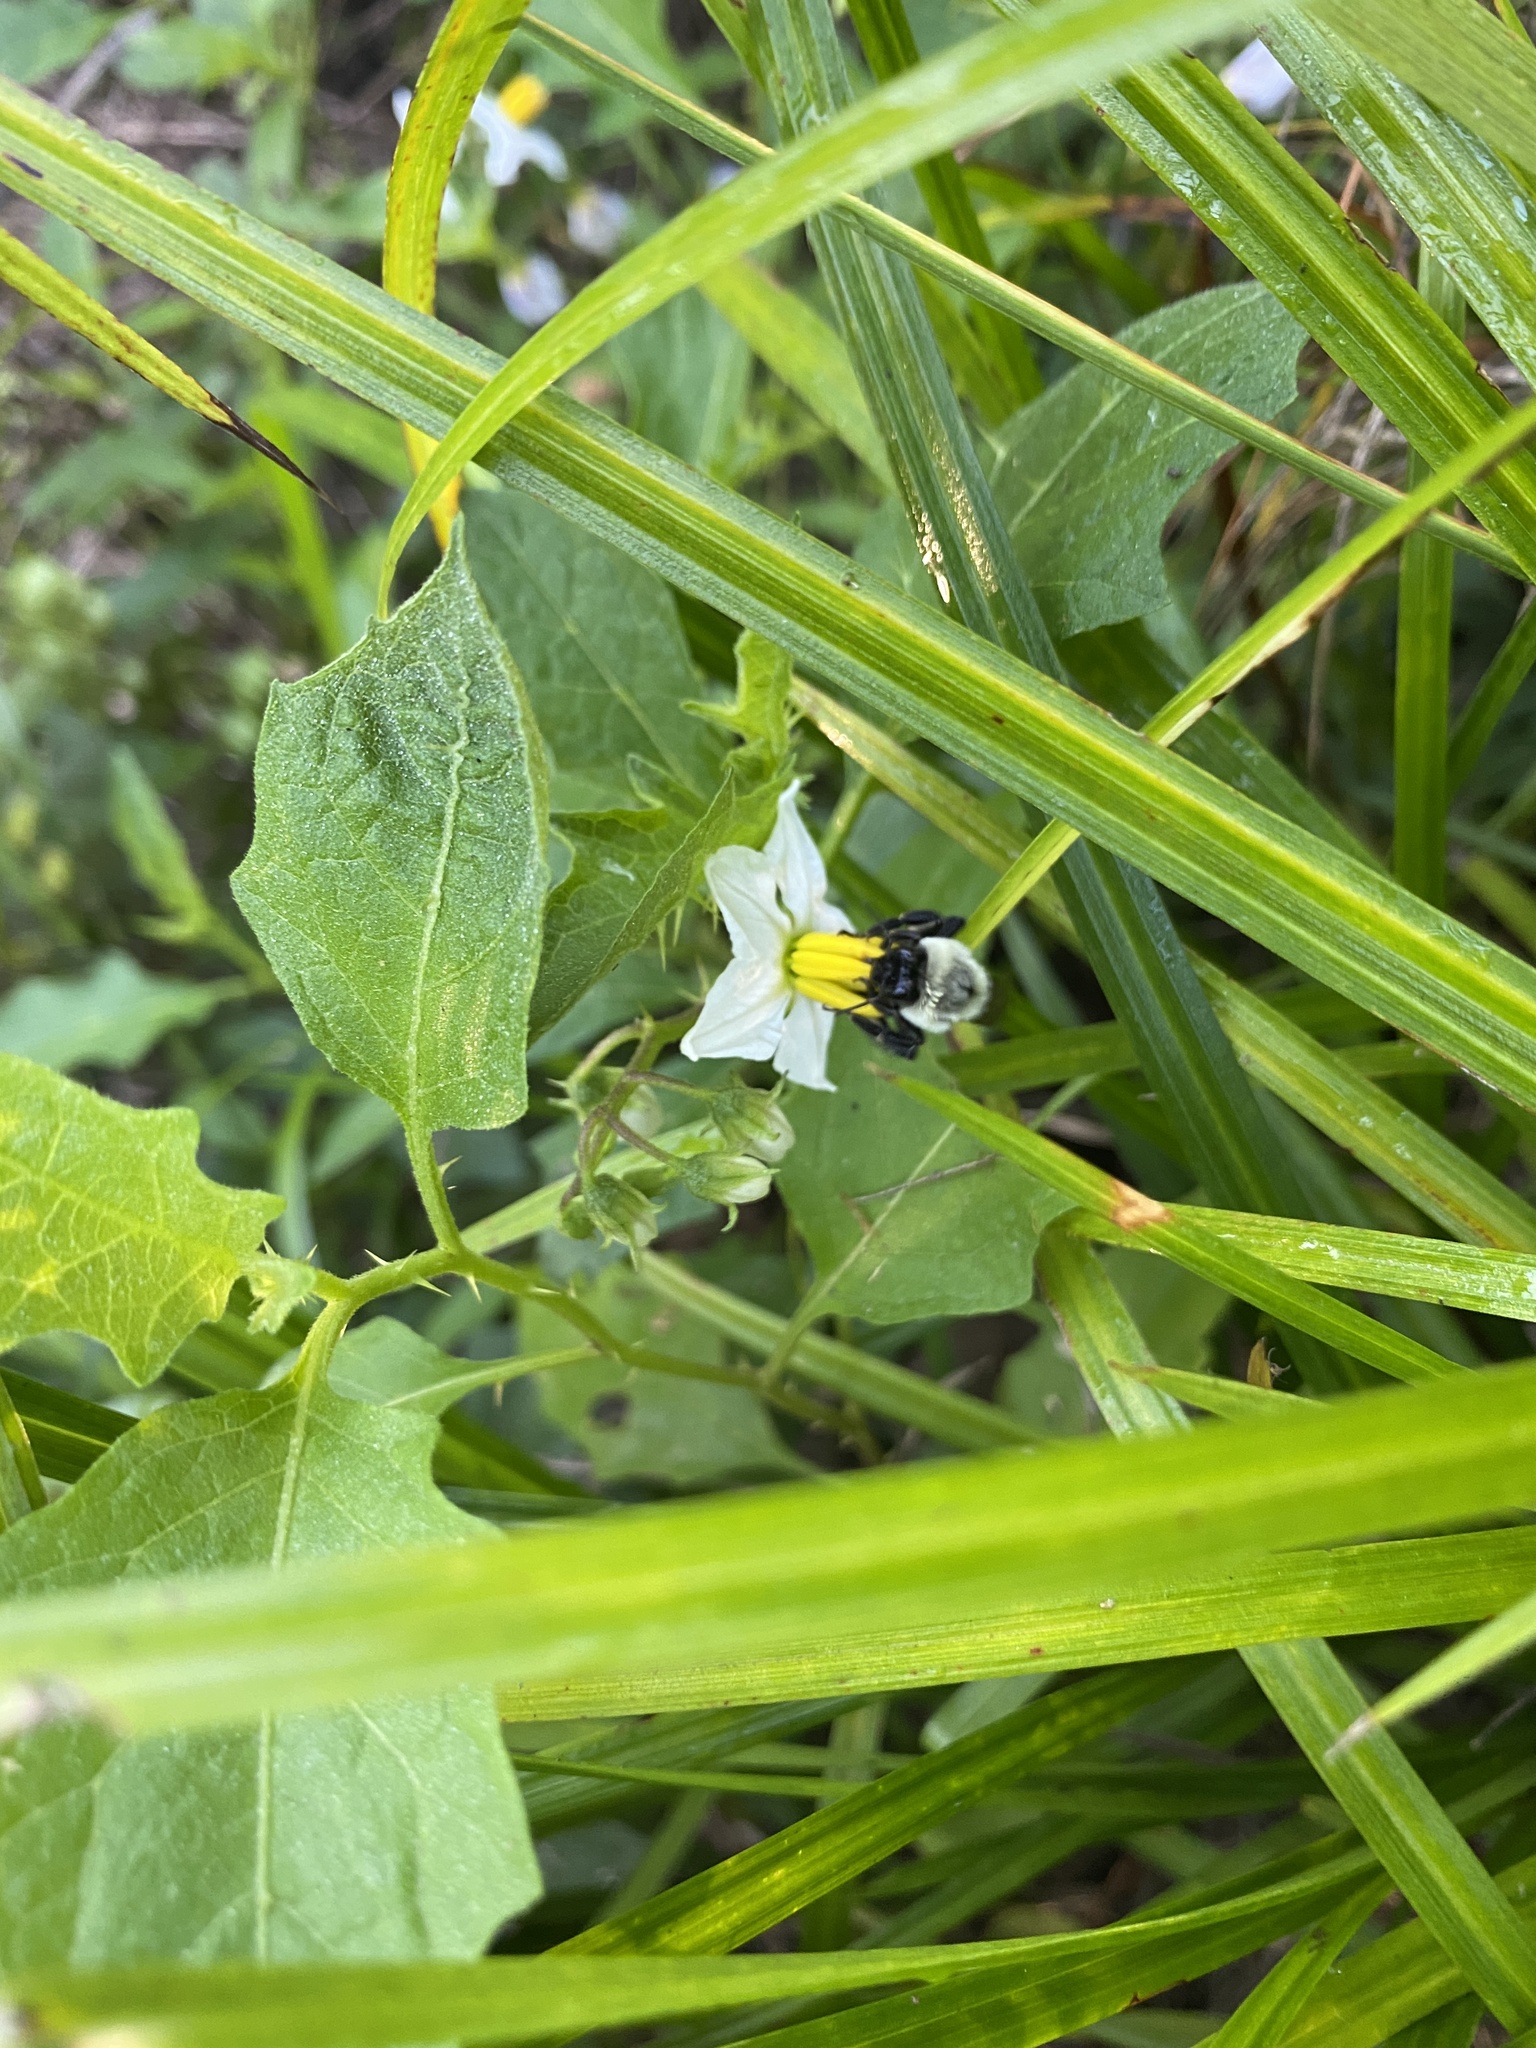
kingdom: Animalia
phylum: Arthropoda
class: Insecta
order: Hymenoptera
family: Apidae
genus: Bombus
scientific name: Bombus impatiens
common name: Common eastern bumble bee
